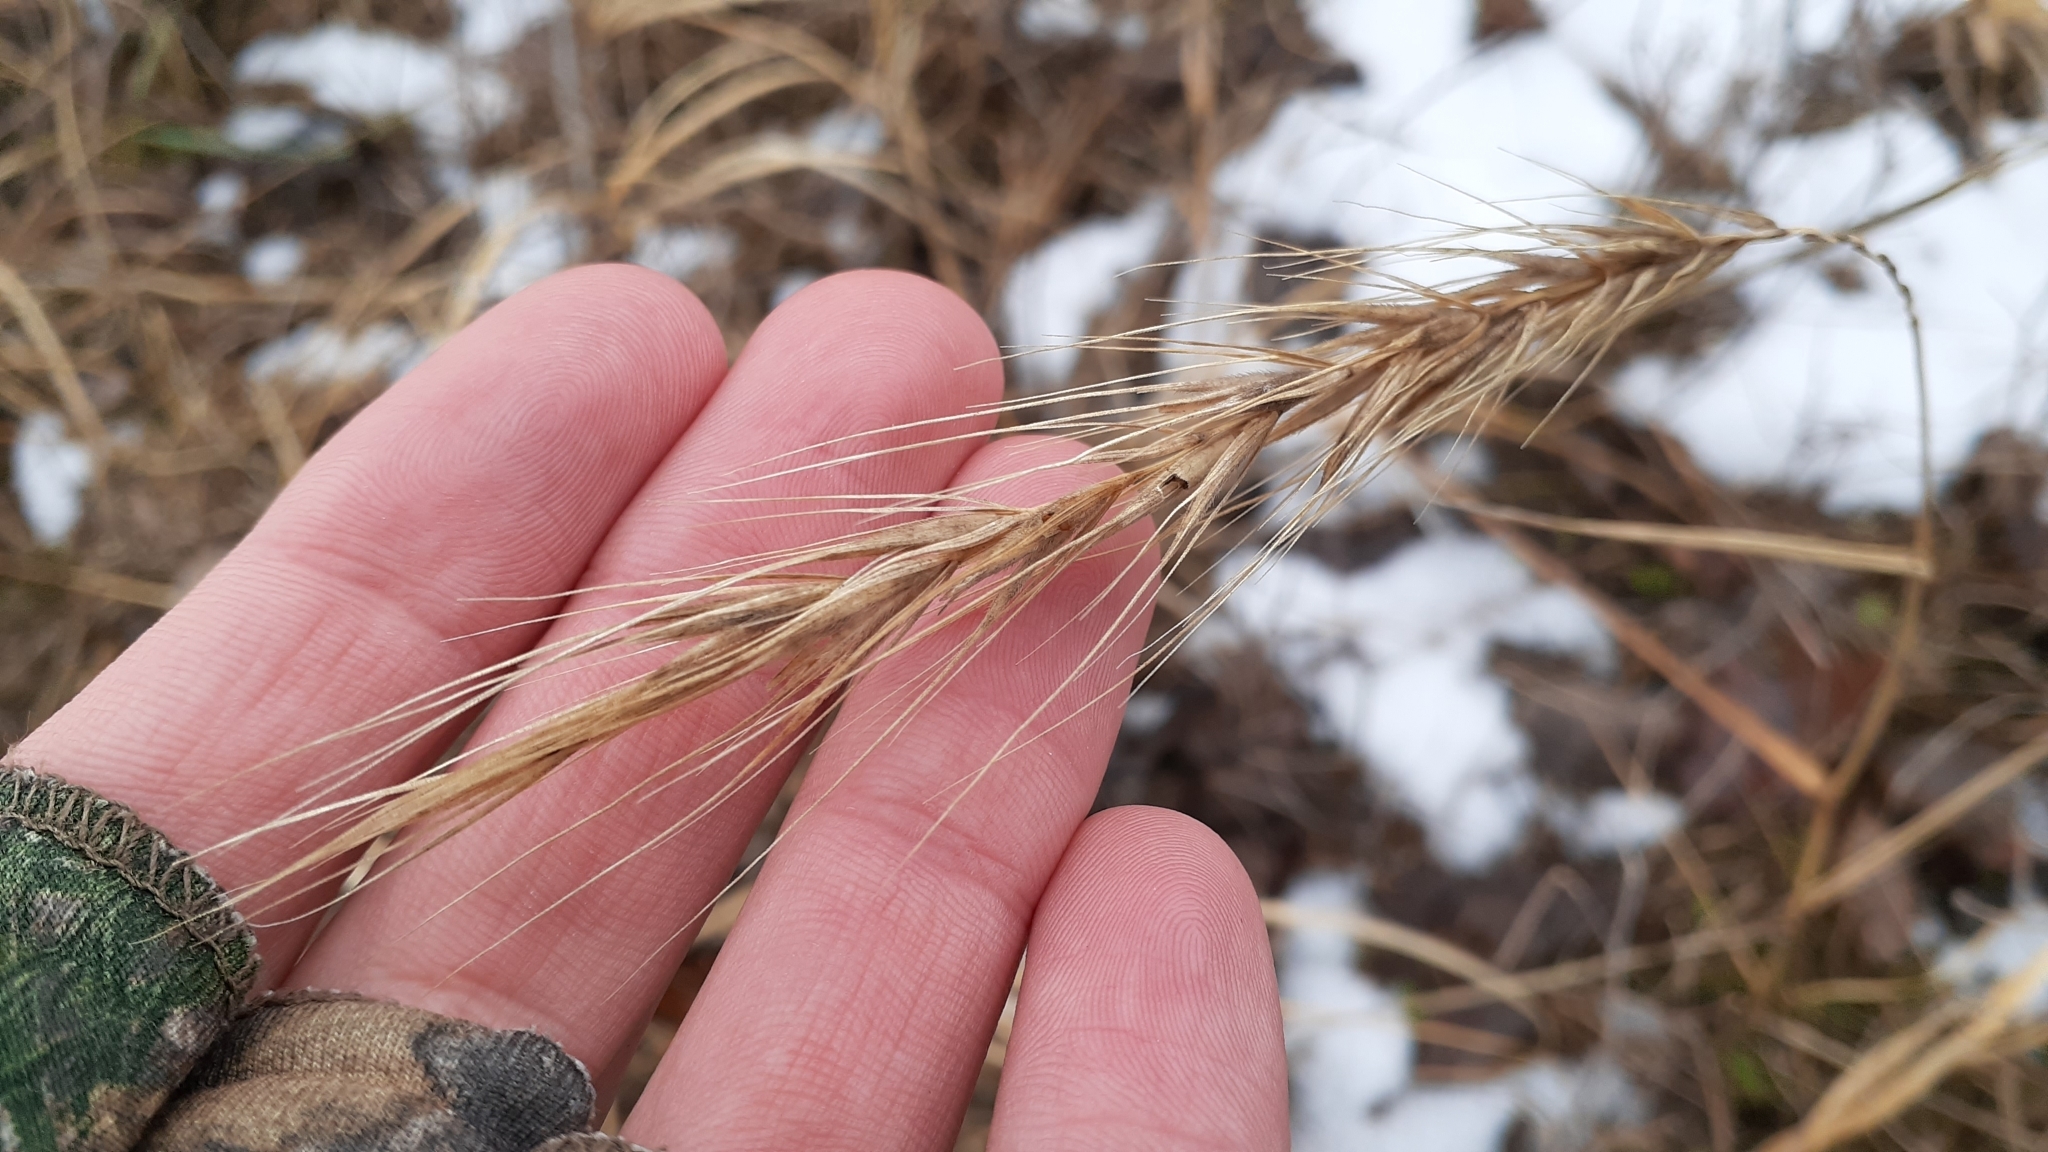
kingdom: Plantae
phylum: Tracheophyta
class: Liliopsida
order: Poales
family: Poaceae
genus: Elymus
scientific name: Elymus canadensis
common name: Canada wild rye
